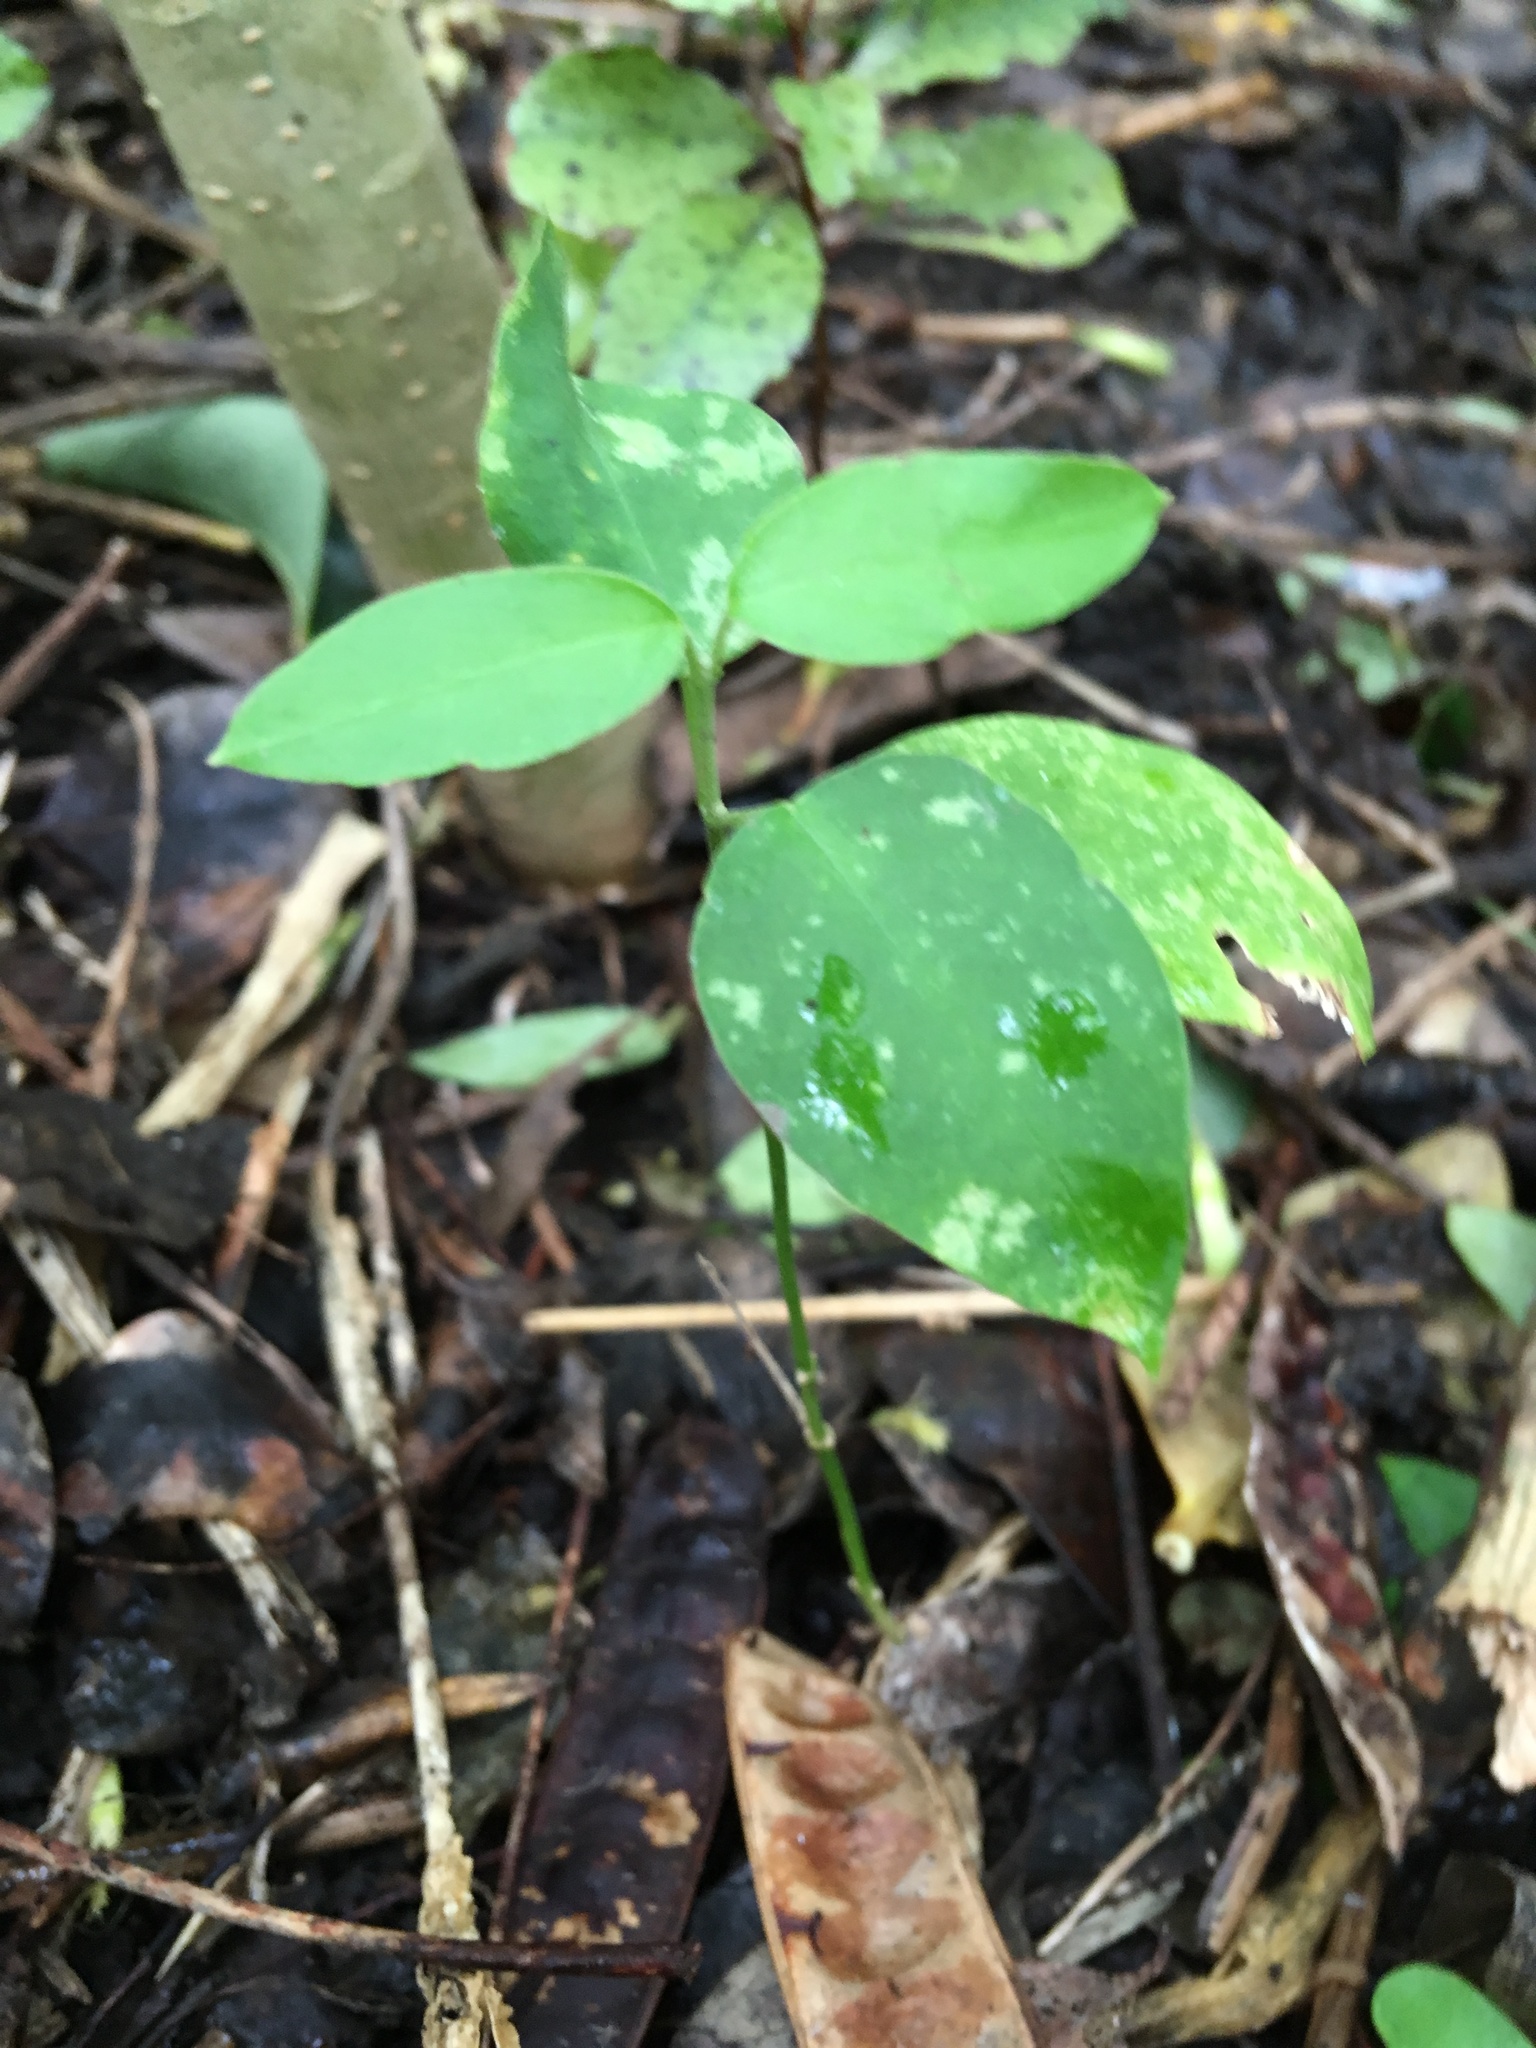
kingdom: Plantae
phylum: Tracheophyta
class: Magnoliopsida
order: Gentianales
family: Apocynaceae
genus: Araujia
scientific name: Araujia sericifera
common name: White bladderflower
